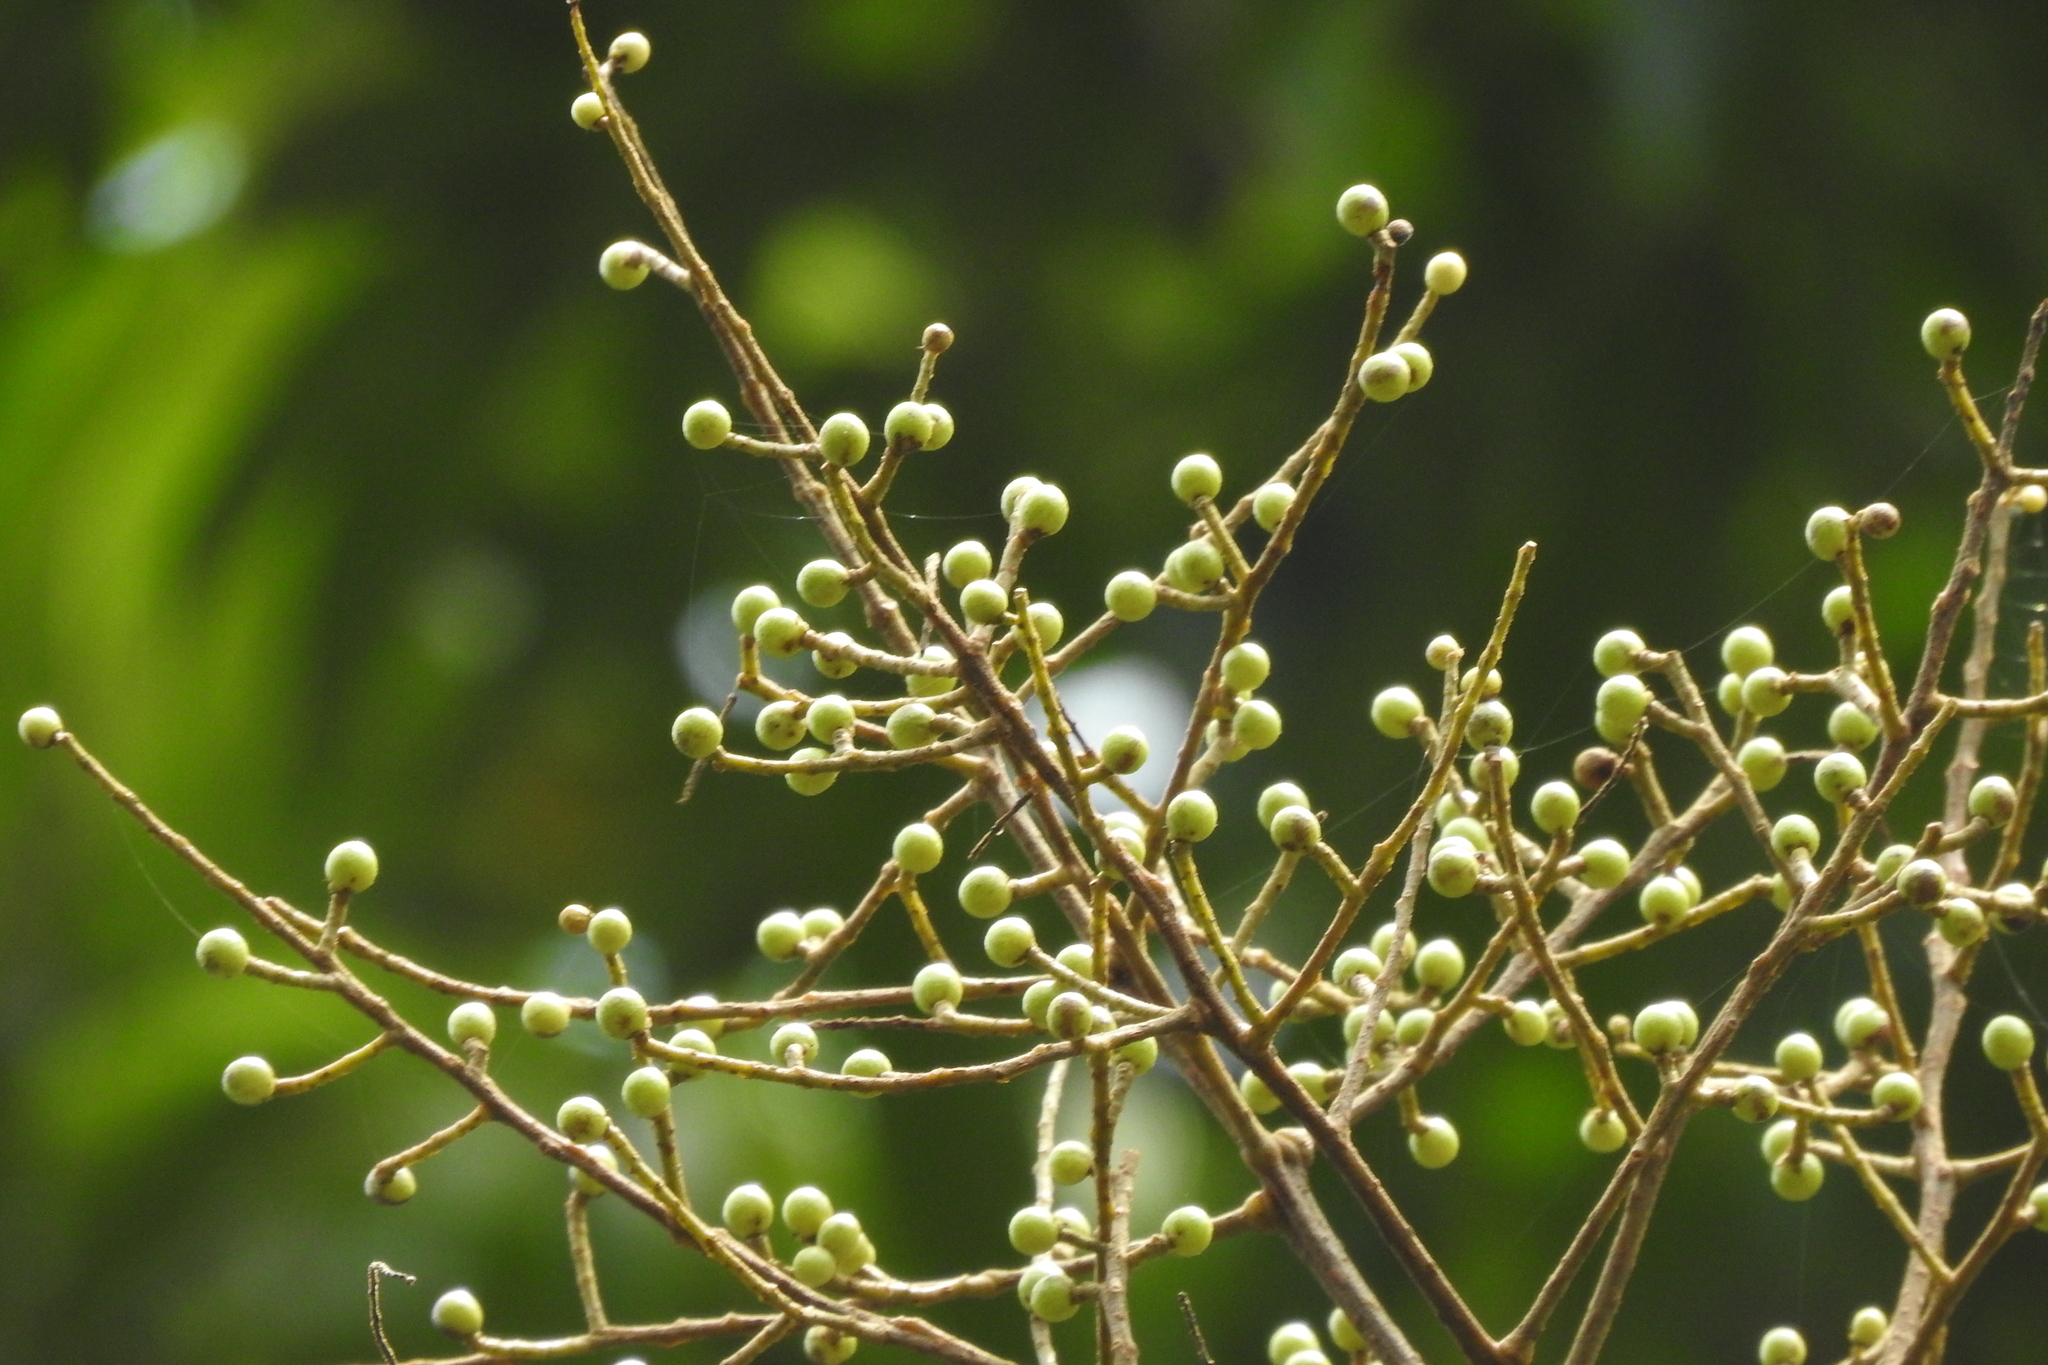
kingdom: Plantae
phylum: Tracheophyta
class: Magnoliopsida
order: Proteales
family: Sabiaceae
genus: Meliosma
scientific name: Meliosma pinnata
